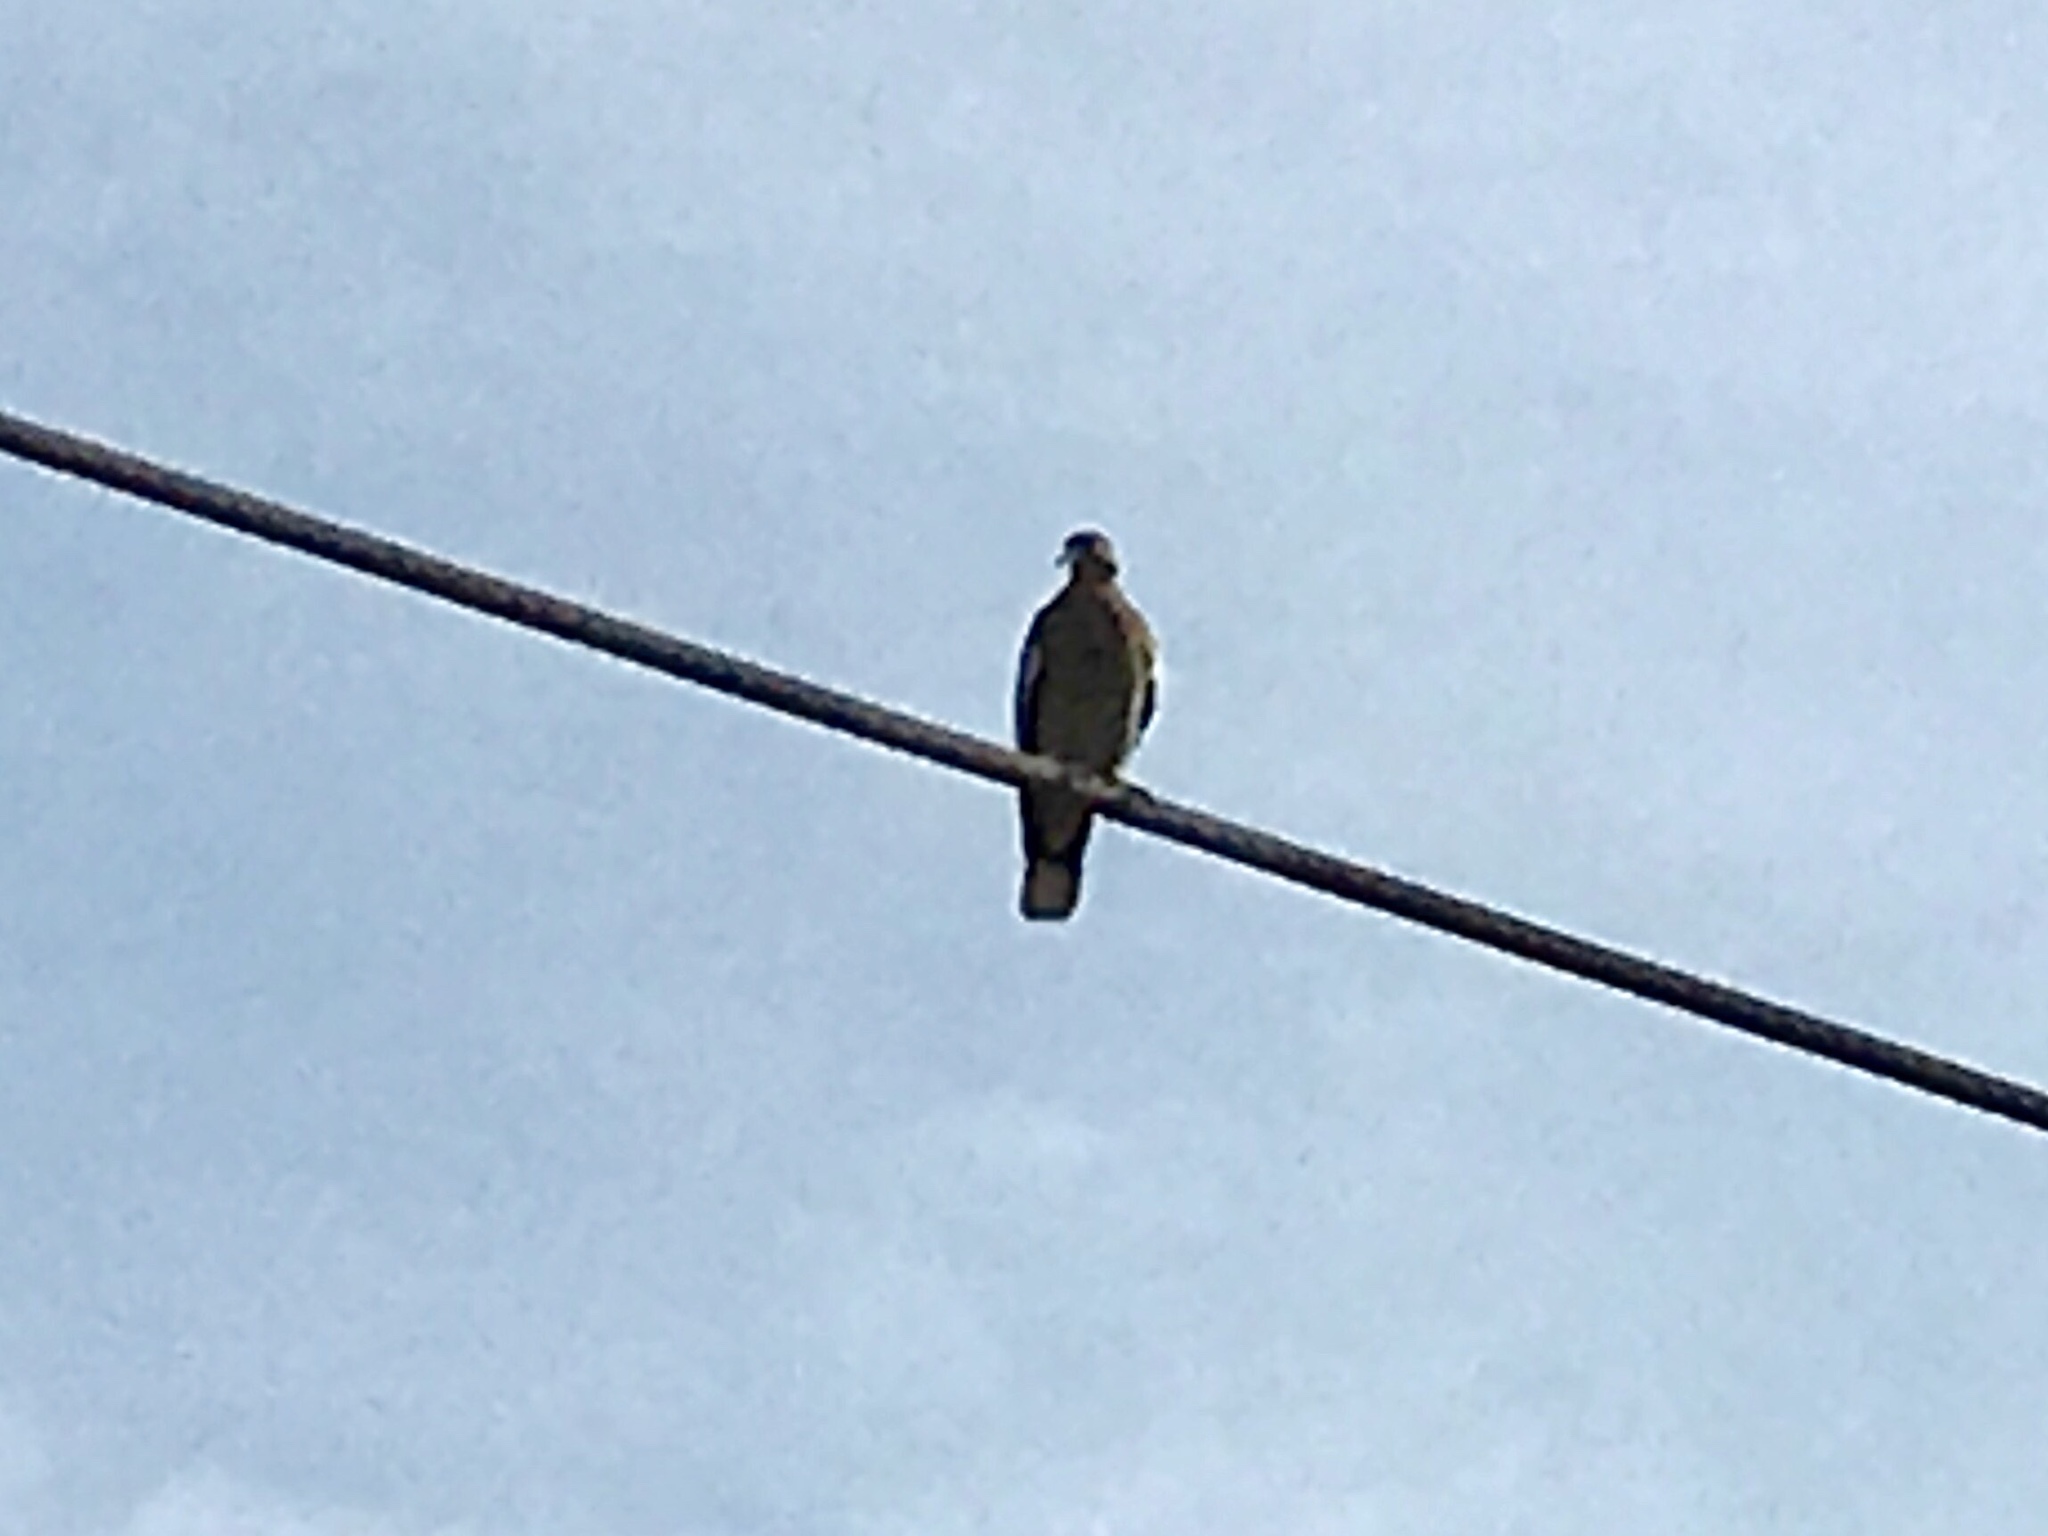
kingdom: Animalia
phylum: Chordata
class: Aves
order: Columbiformes
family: Columbidae
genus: Zenaida
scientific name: Zenaida asiatica
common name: White-winged dove
